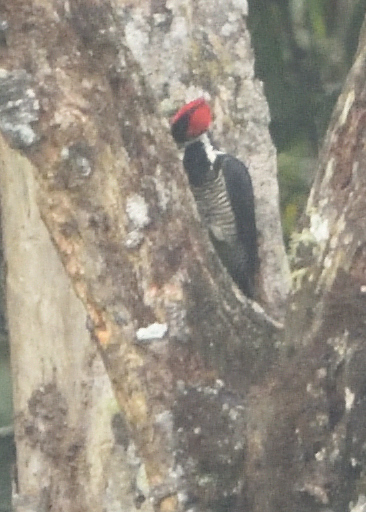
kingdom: Animalia
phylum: Chordata
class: Aves
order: Piciformes
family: Picidae
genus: Campephilus
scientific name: Campephilus melanoleucos
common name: Crimson-crested woodpecker
